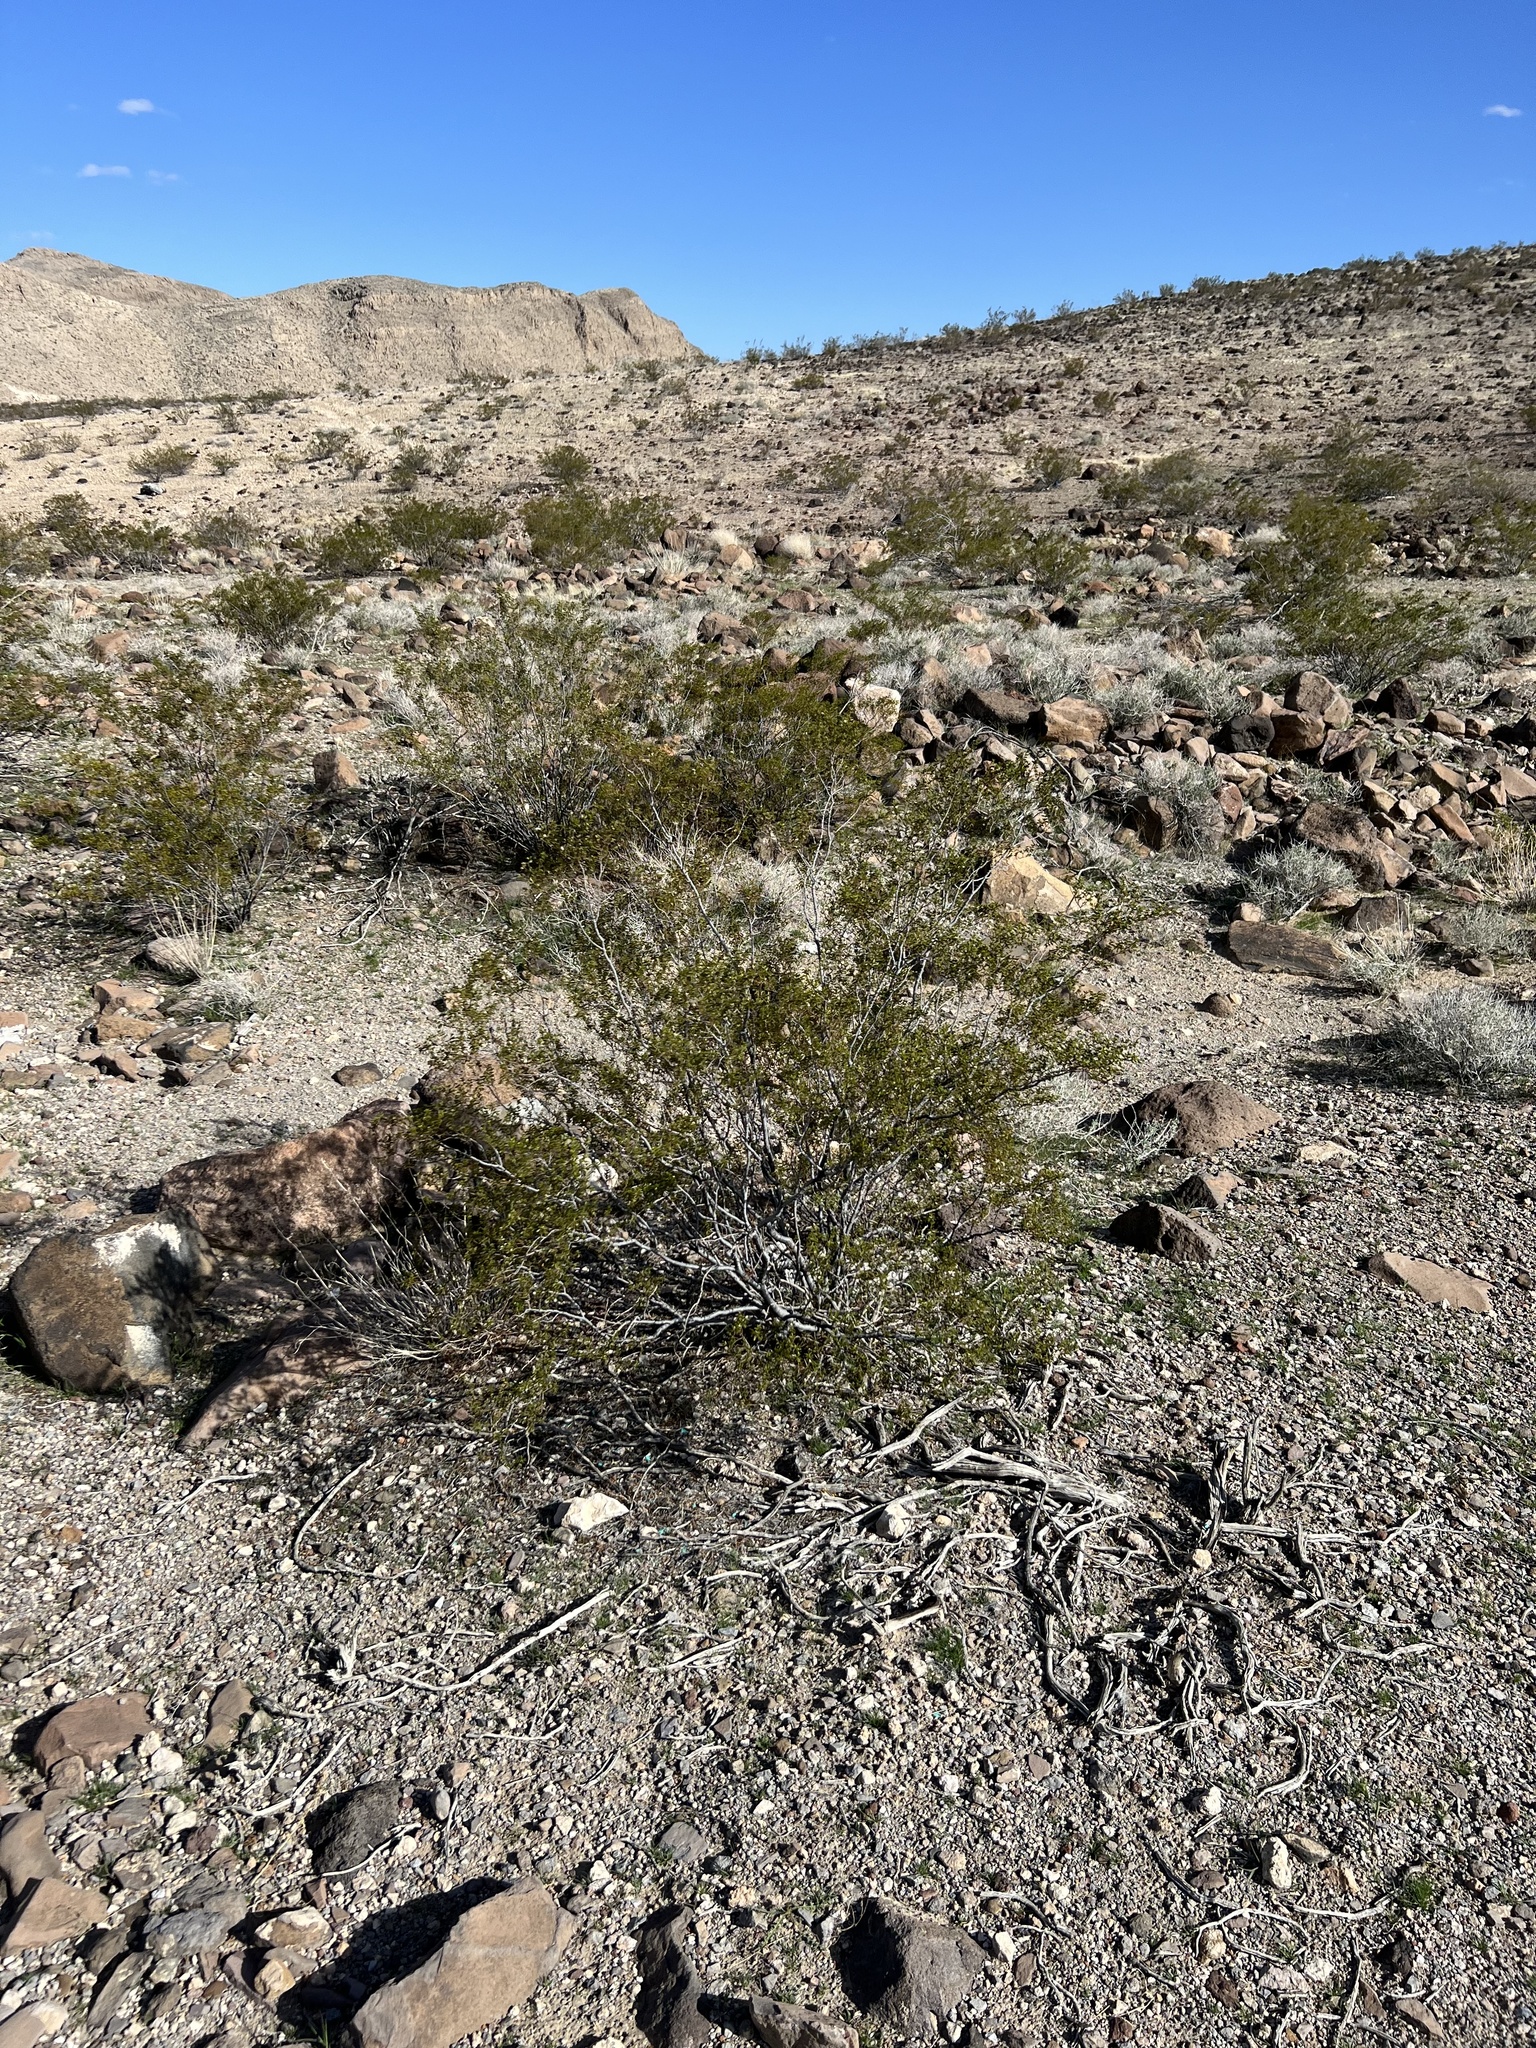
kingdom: Plantae
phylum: Tracheophyta
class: Magnoliopsida
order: Zygophyllales
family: Zygophyllaceae
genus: Larrea
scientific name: Larrea tridentata
